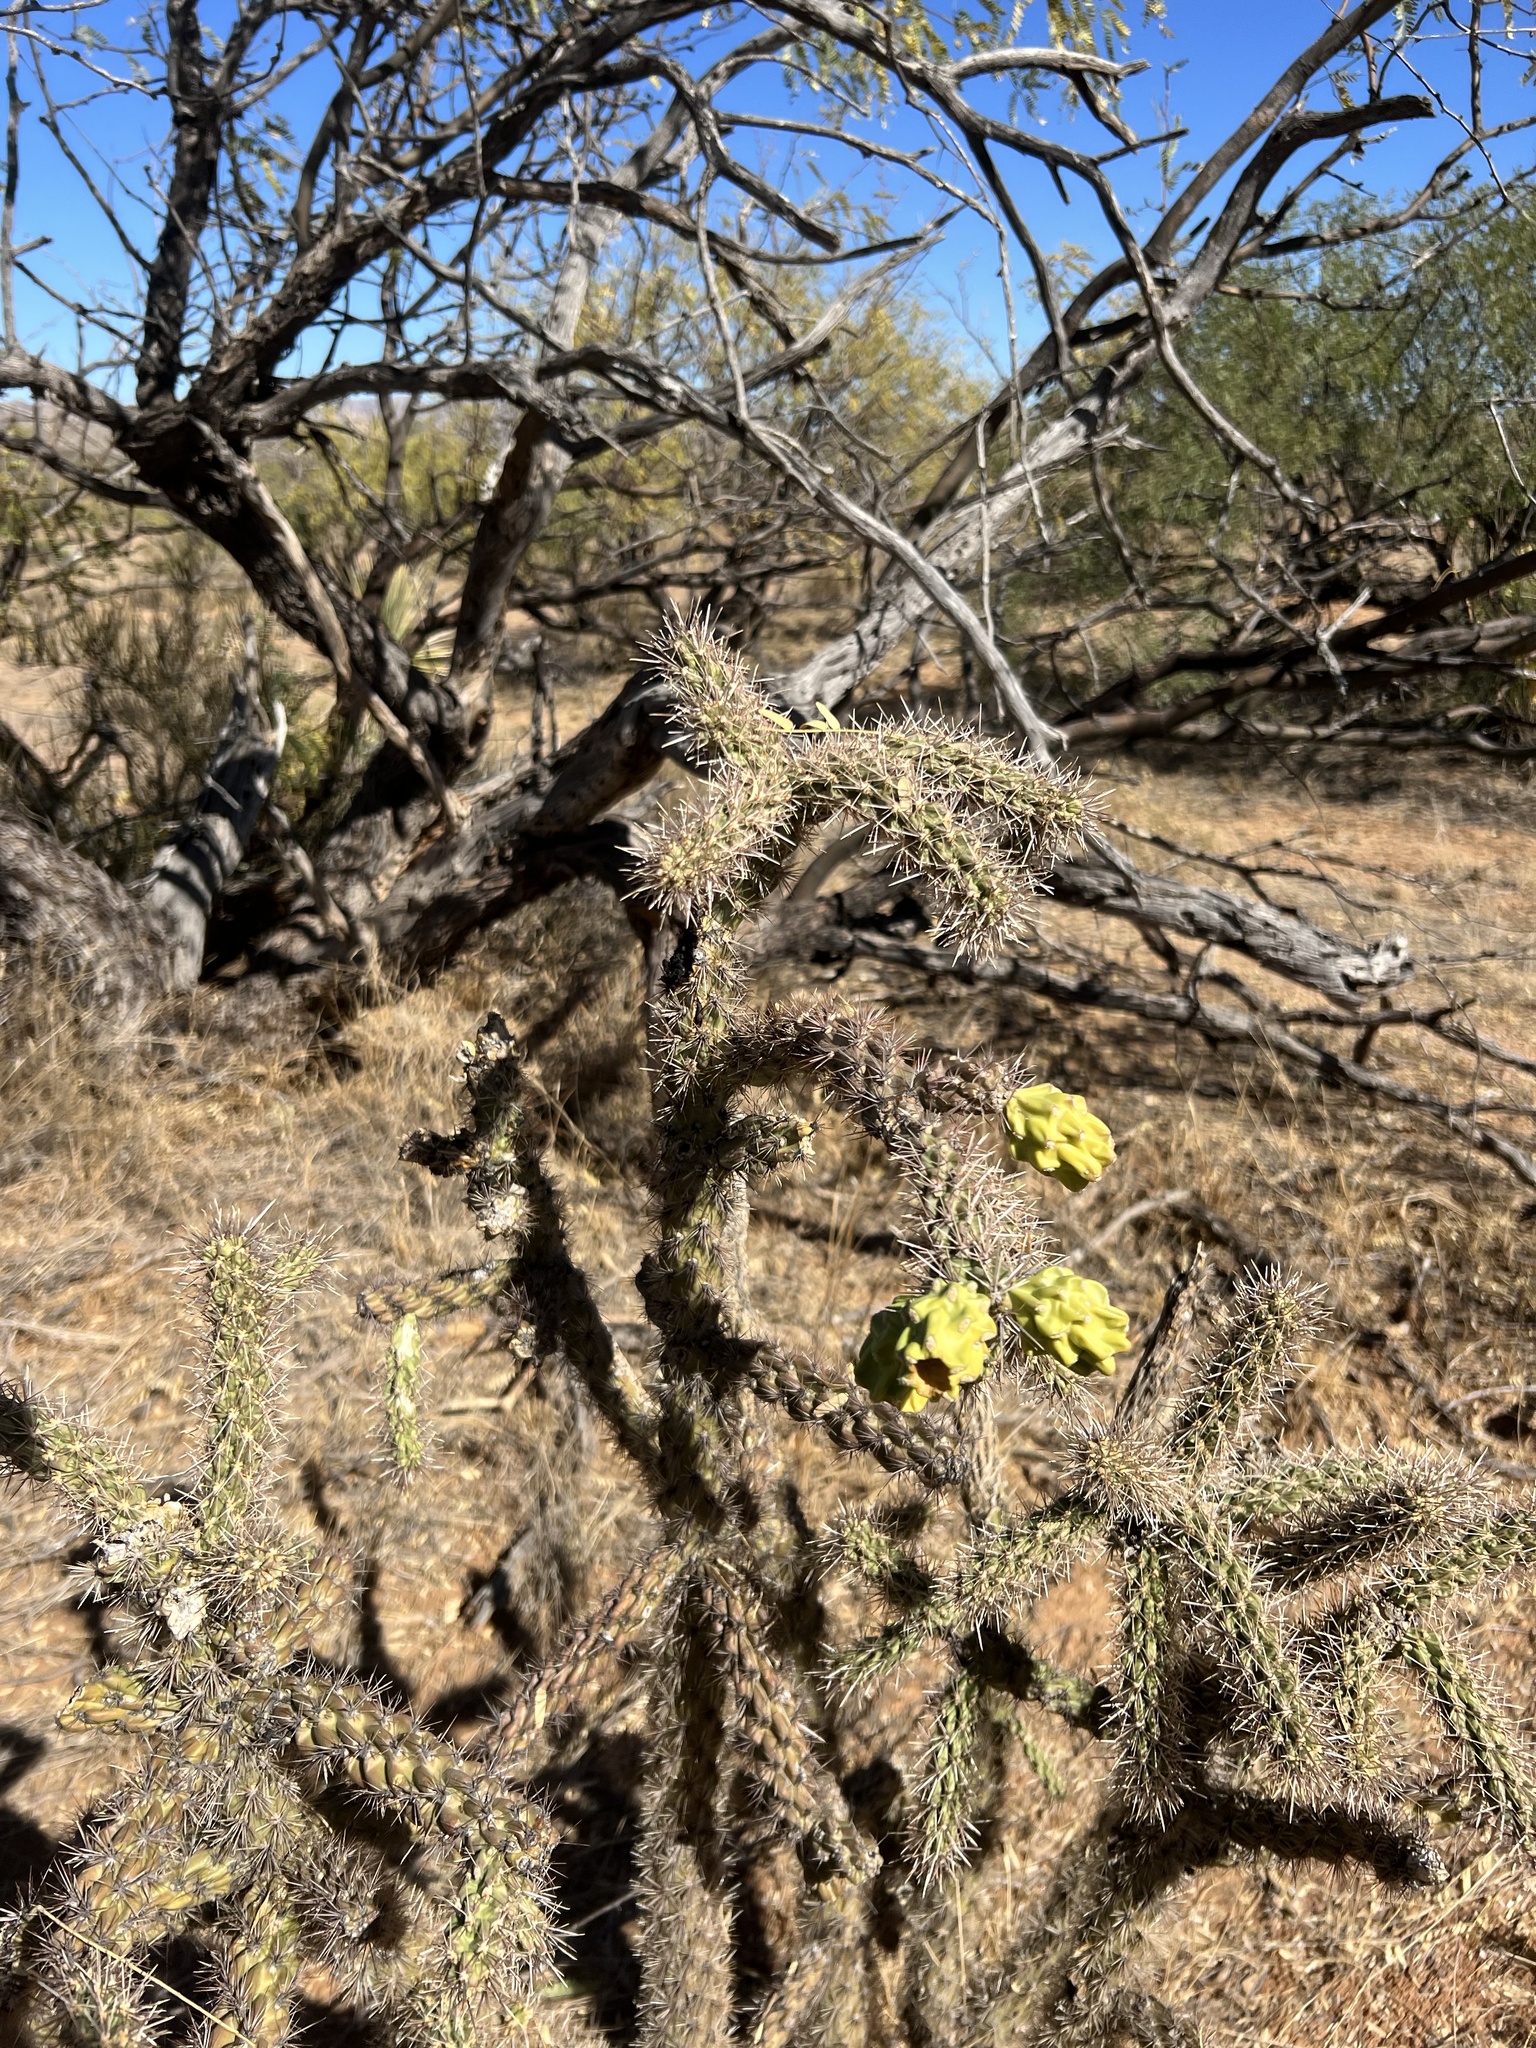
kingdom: Plantae
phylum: Tracheophyta
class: Magnoliopsida
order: Caryophyllales
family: Cactaceae
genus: Cylindropuntia
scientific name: Cylindropuntia imbricata
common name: Candelabrum cactus
